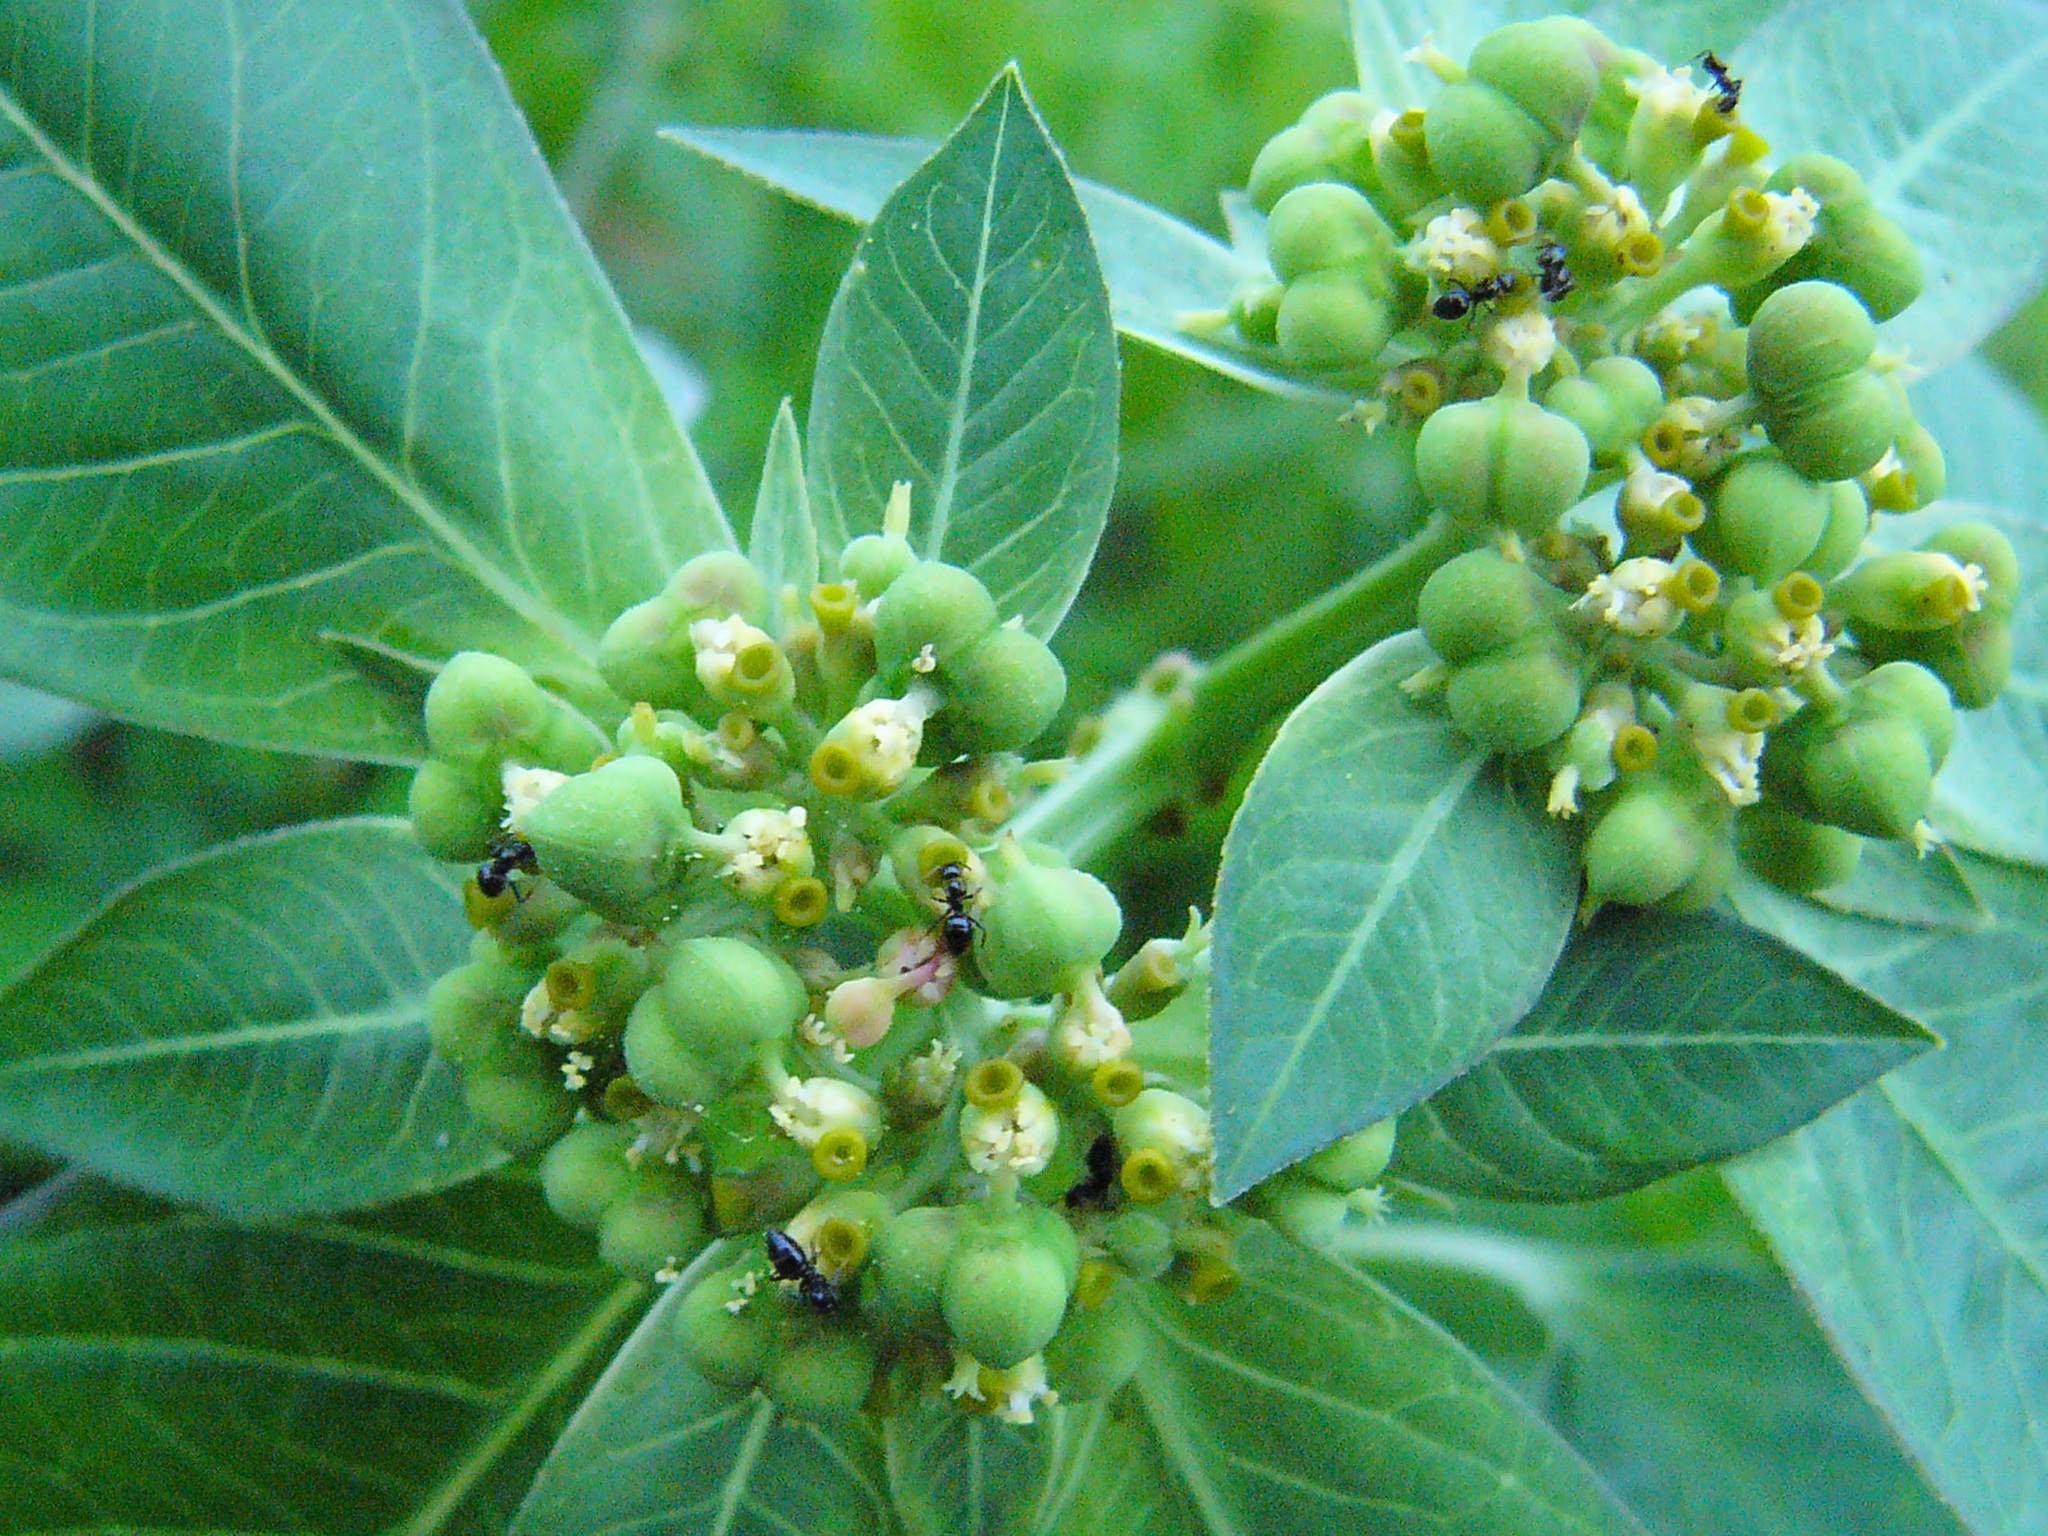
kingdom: Plantae
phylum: Tracheophyta
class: Magnoliopsida
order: Malpighiales
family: Euphorbiaceae
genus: Euphorbia
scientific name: Euphorbia heterophylla
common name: Mexican fireplant
